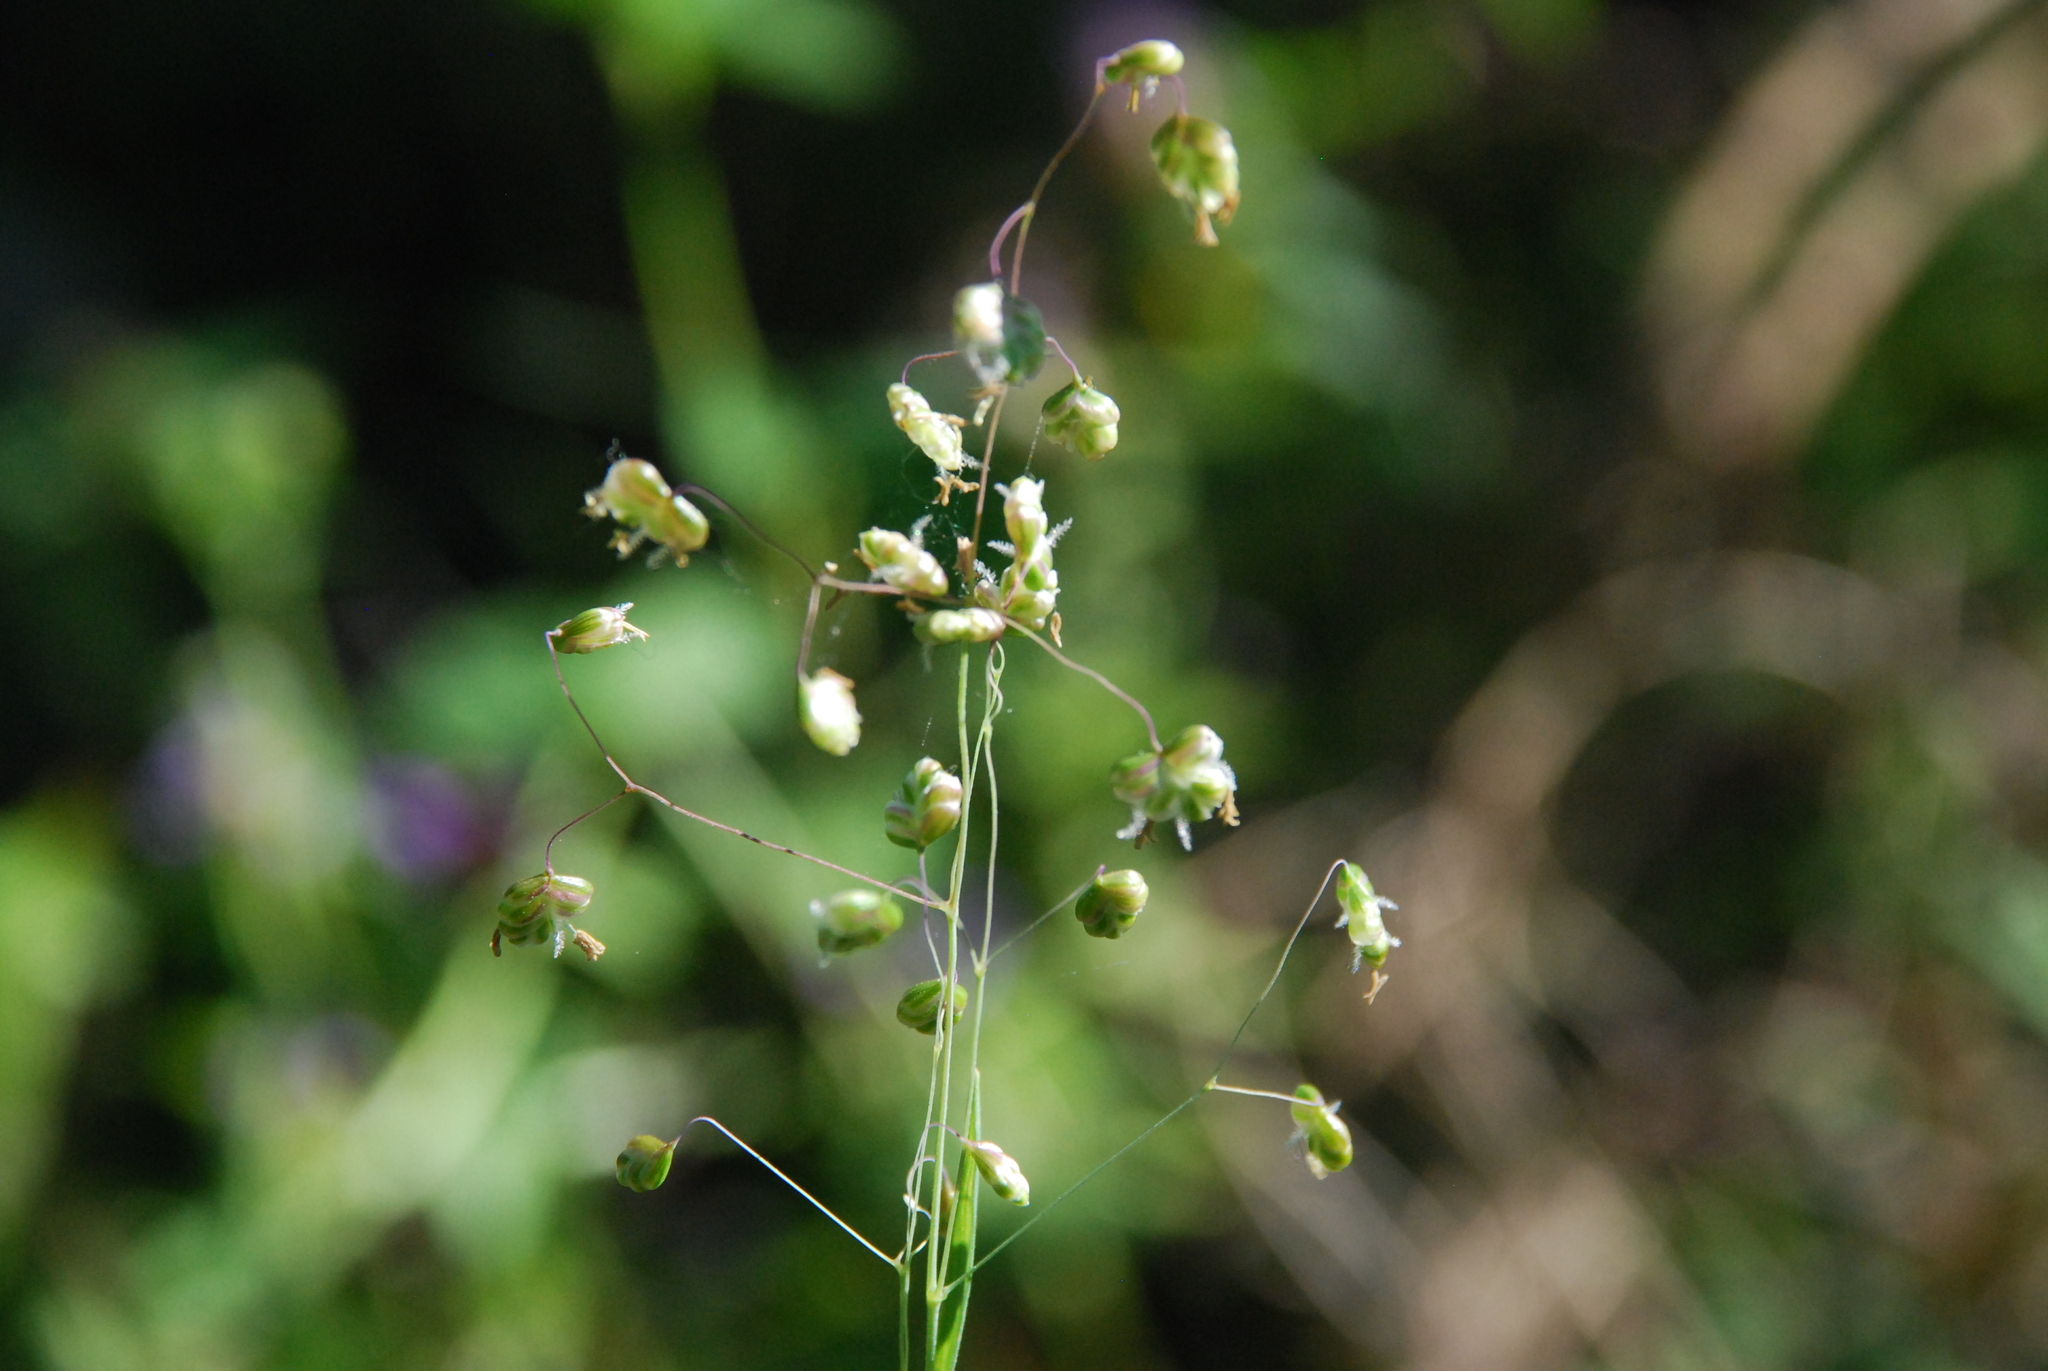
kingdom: Plantae
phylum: Tracheophyta
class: Liliopsida
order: Poales
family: Poaceae
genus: Briza
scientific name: Briza media
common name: Quaking grass
